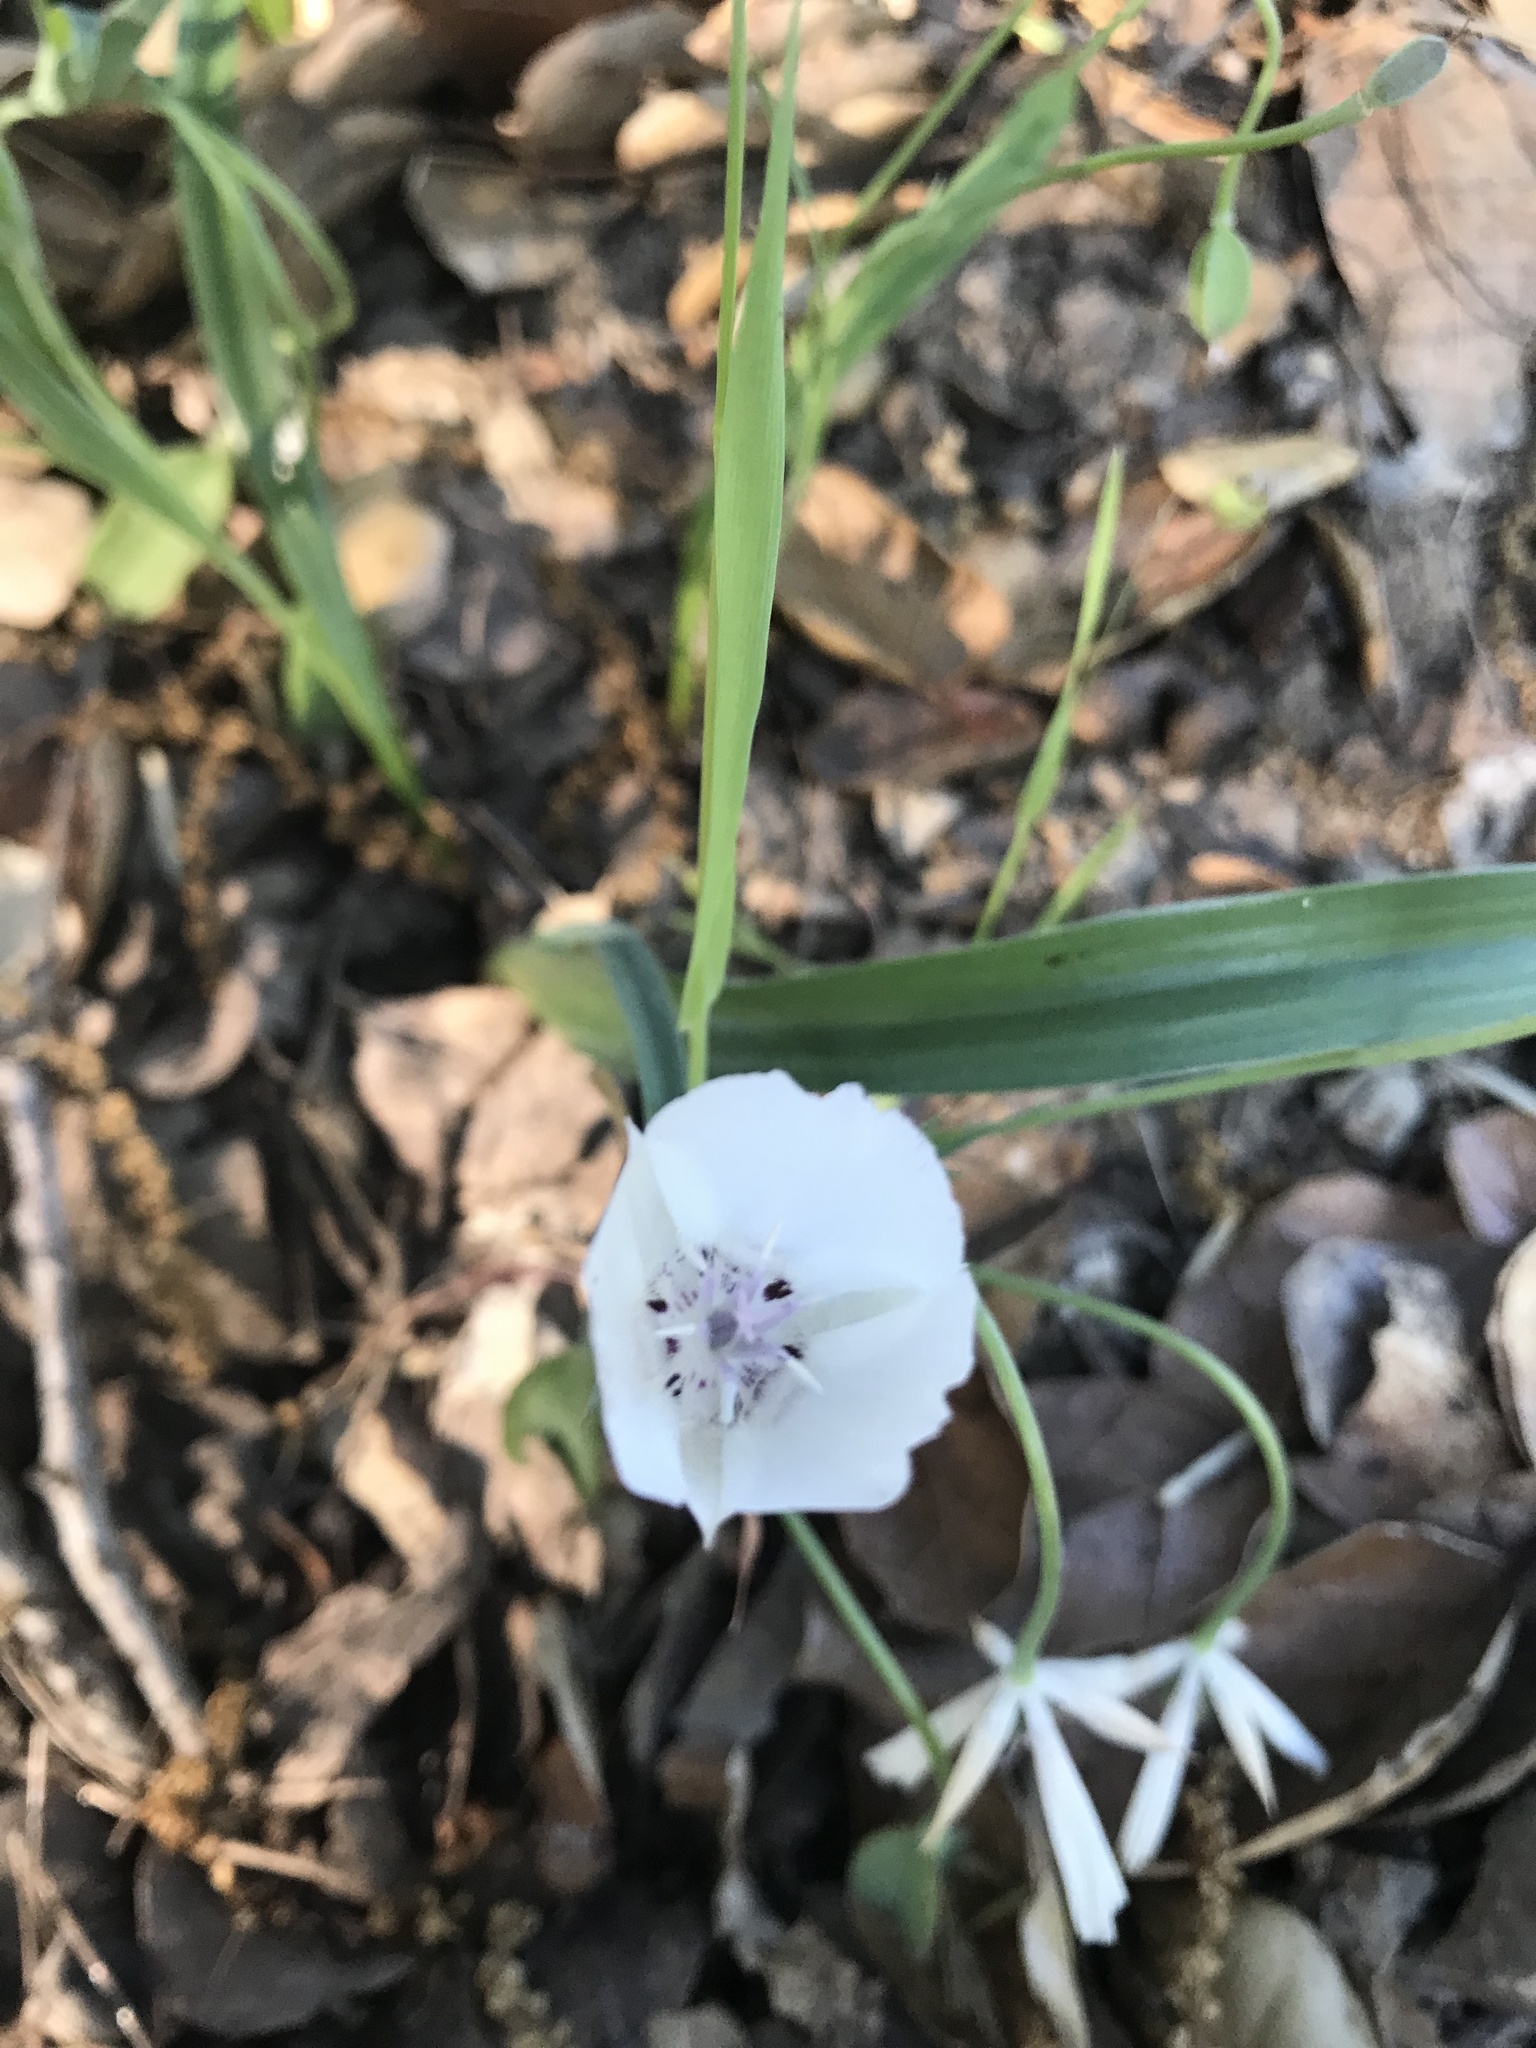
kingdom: Plantae
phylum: Tracheophyta
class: Liliopsida
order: Liliales
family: Liliaceae
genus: Calochortus
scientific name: Calochortus umbellatus
